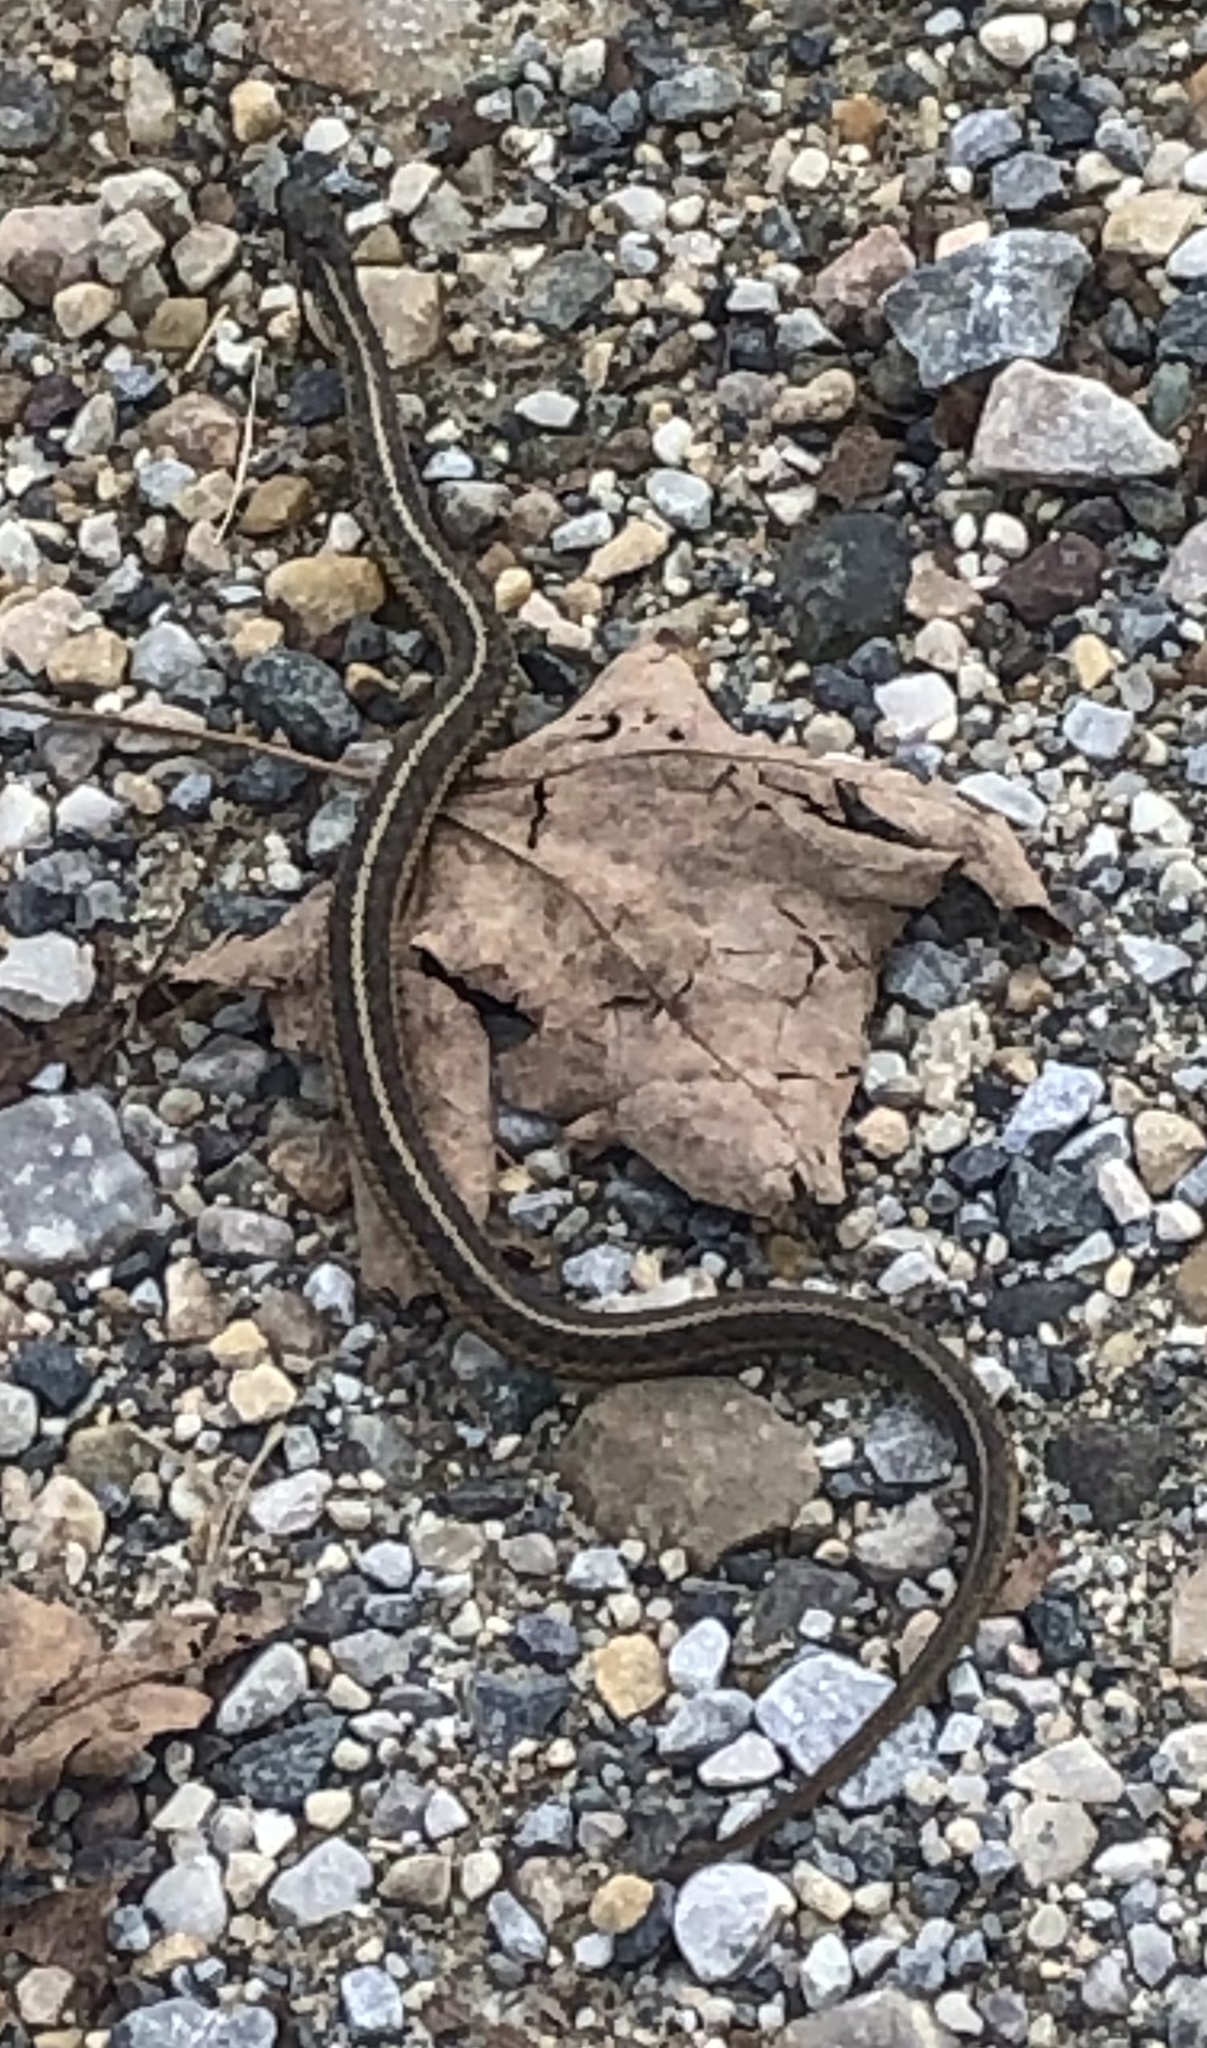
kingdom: Animalia
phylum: Chordata
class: Squamata
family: Colubridae
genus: Thamnophis
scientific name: Thamnophis sirtalis
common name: Common garter snake
